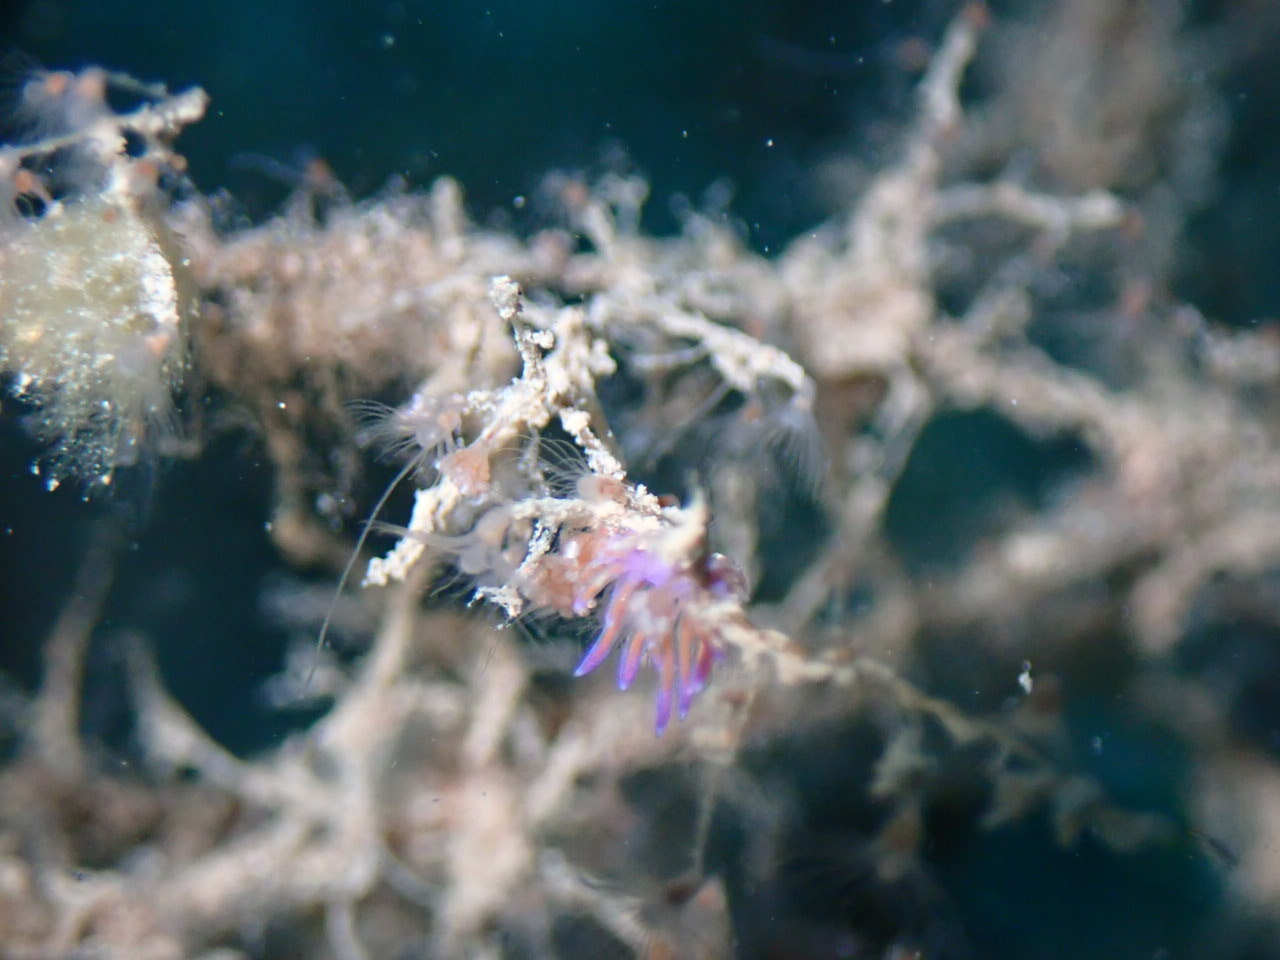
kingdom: Animalia
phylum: Mollusca
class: Gastropoda
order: Nudibranchia
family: Flabellinidae
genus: Flabellina
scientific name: Flabellina affinis
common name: Mediterranean violet aeolid
